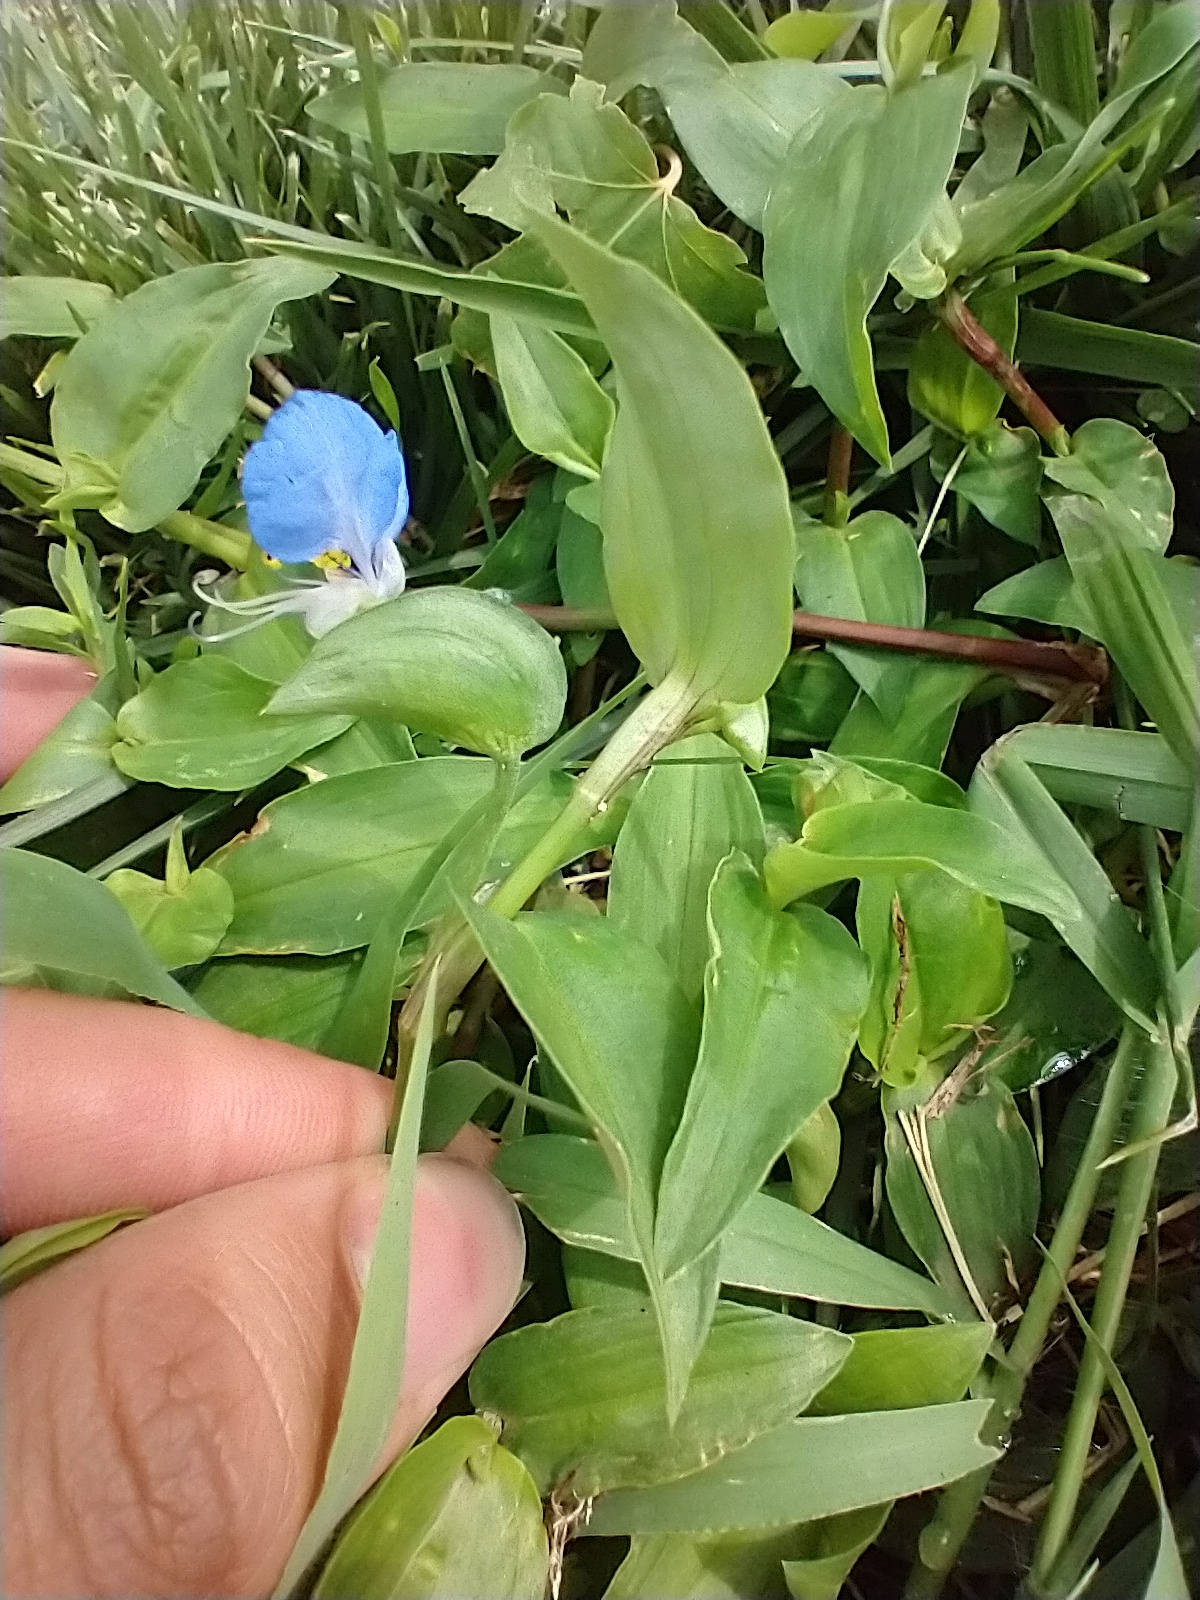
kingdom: Plantae
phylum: Tracheophyta
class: Liliopsida
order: Commelinales
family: Commelinaceae
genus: Commelina
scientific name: Commelina communis
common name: Asiatic dayflower
